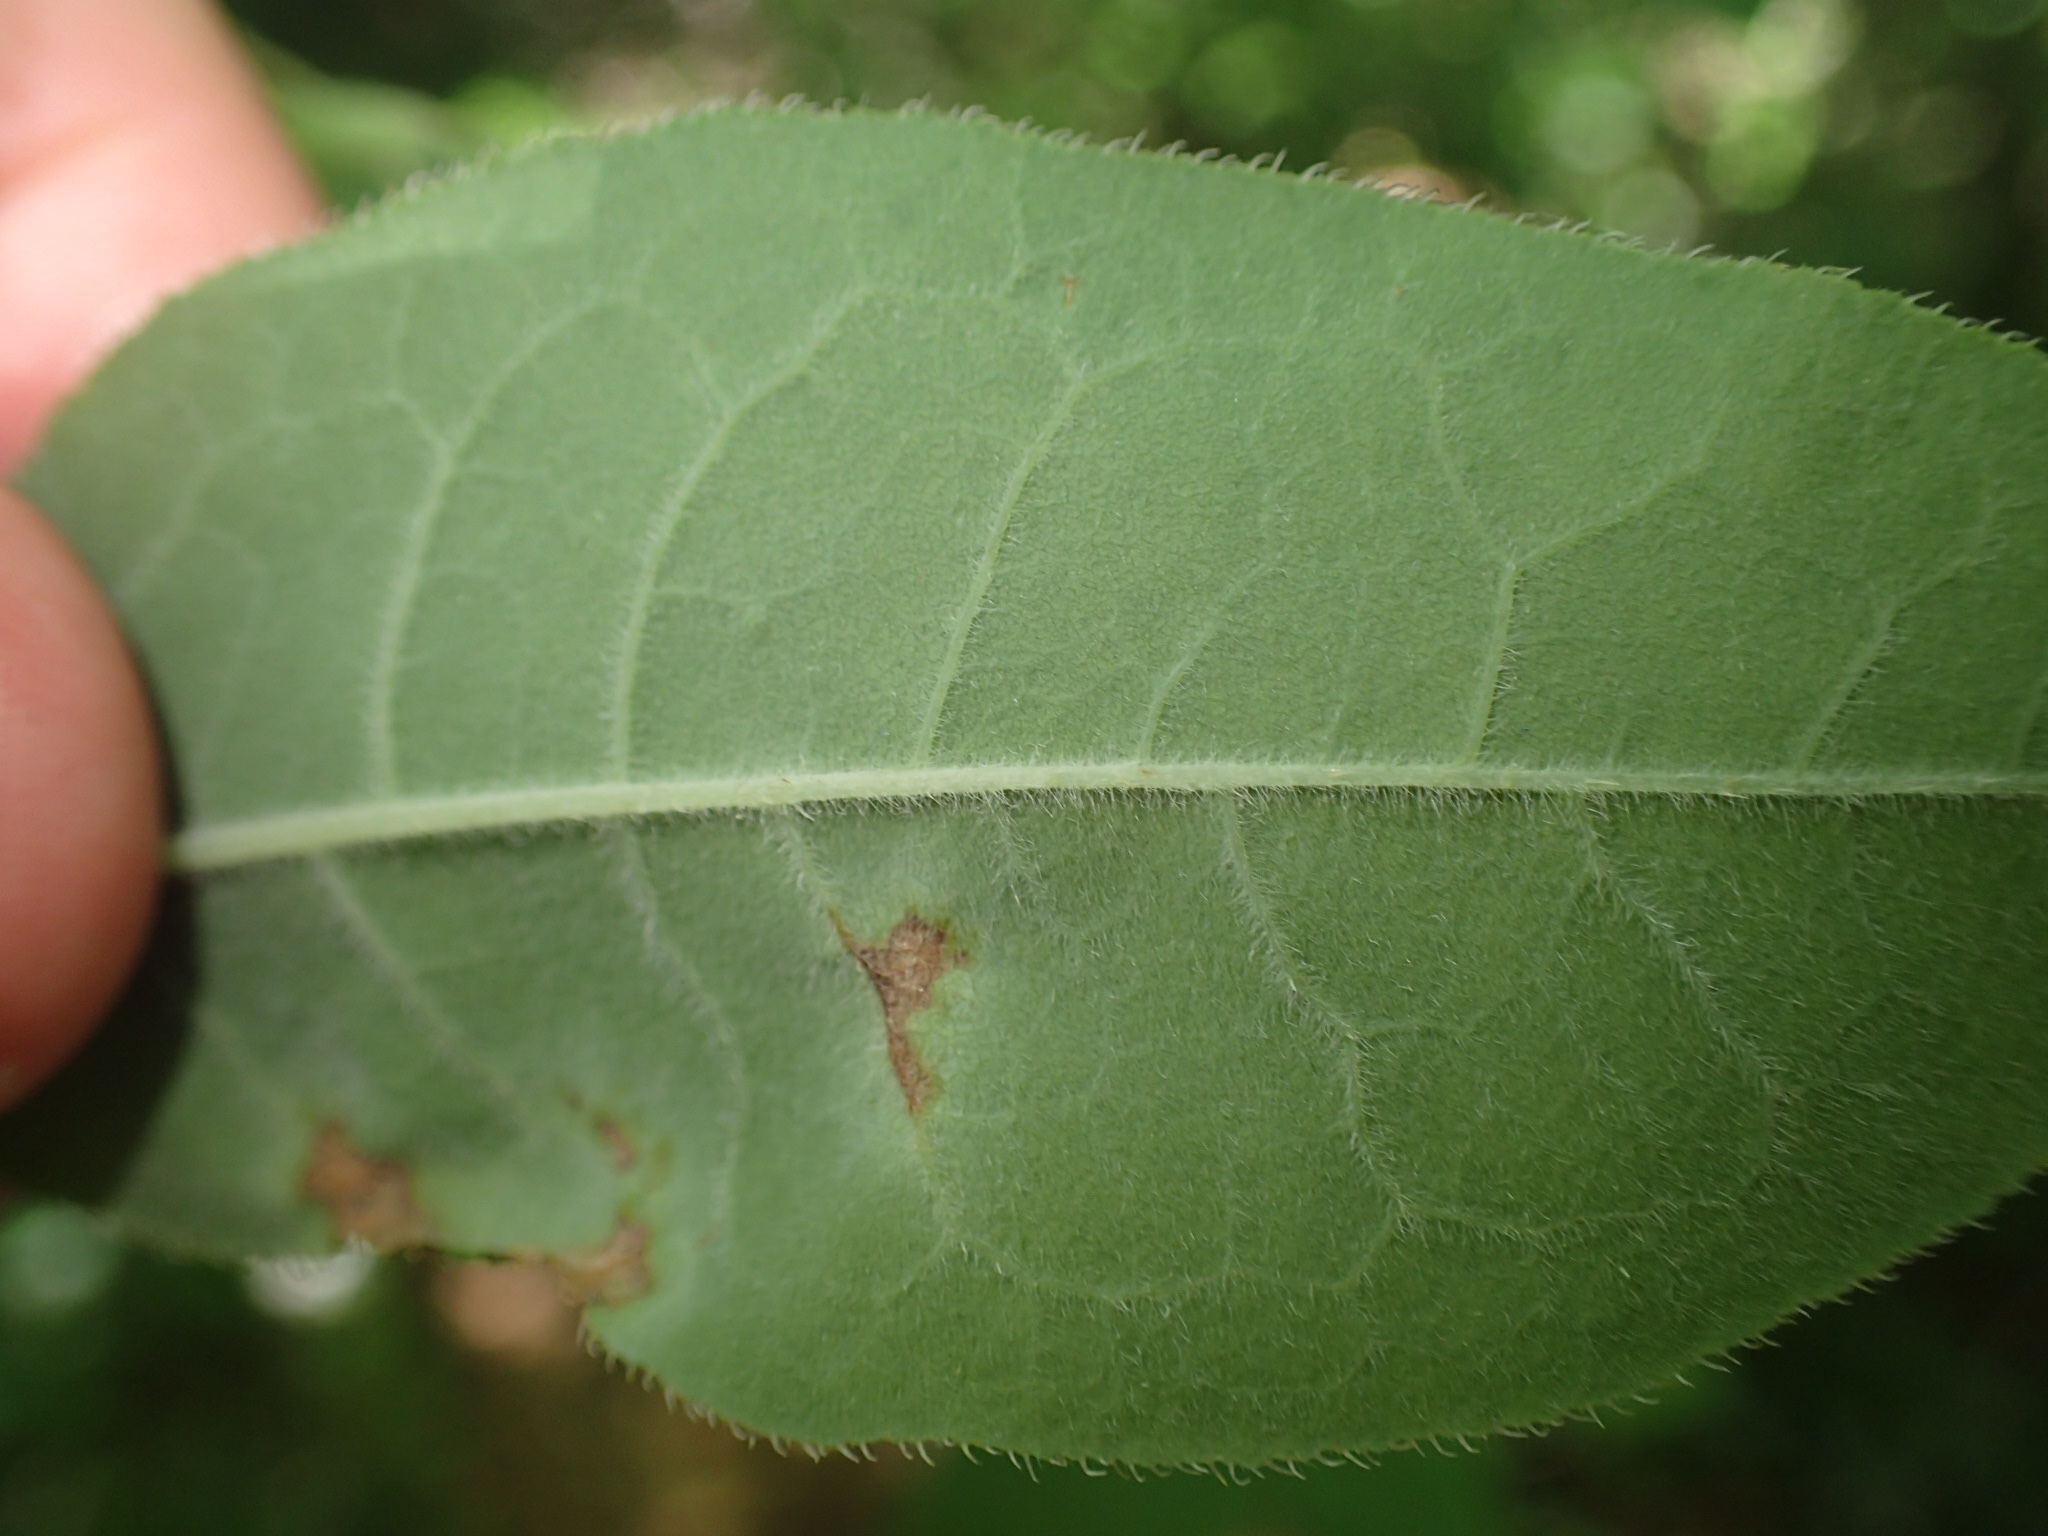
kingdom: Plantae
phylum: Tracheophyta
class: Magnoliopsida
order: Ericales
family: Ericaceae
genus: Rhododendron
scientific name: Rhododendron roseum
